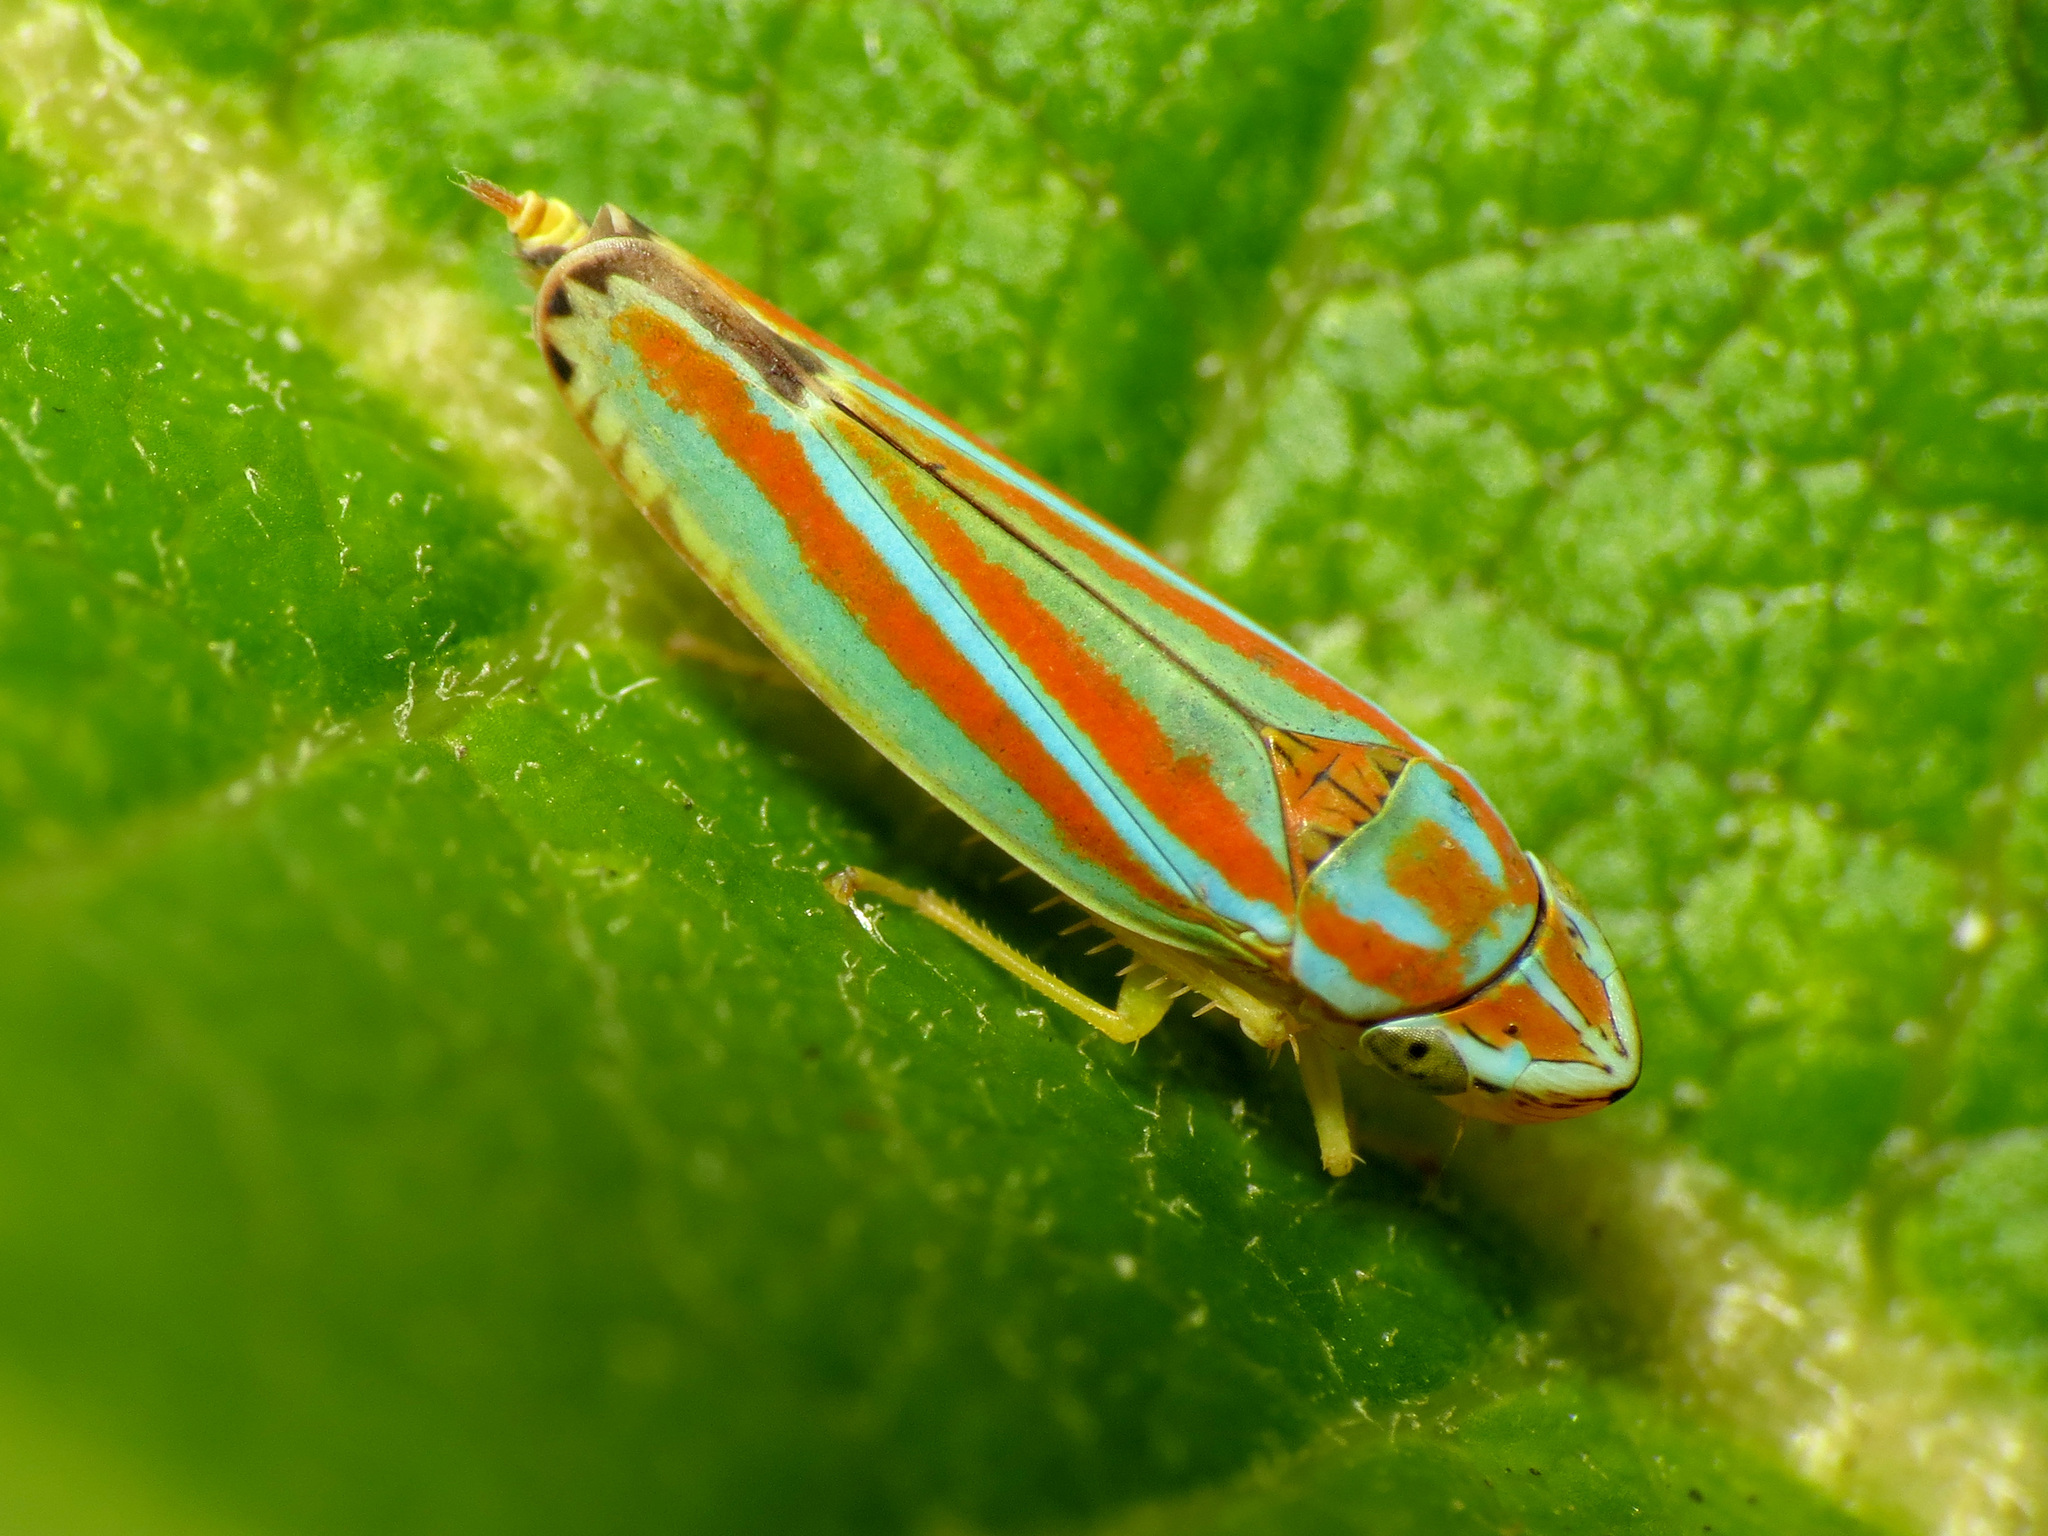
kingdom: Animalia
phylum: Arthropoda
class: Insecta
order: Hemiptera
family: Cicadellidae
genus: Graphocephala
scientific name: Graphocephala versuta
